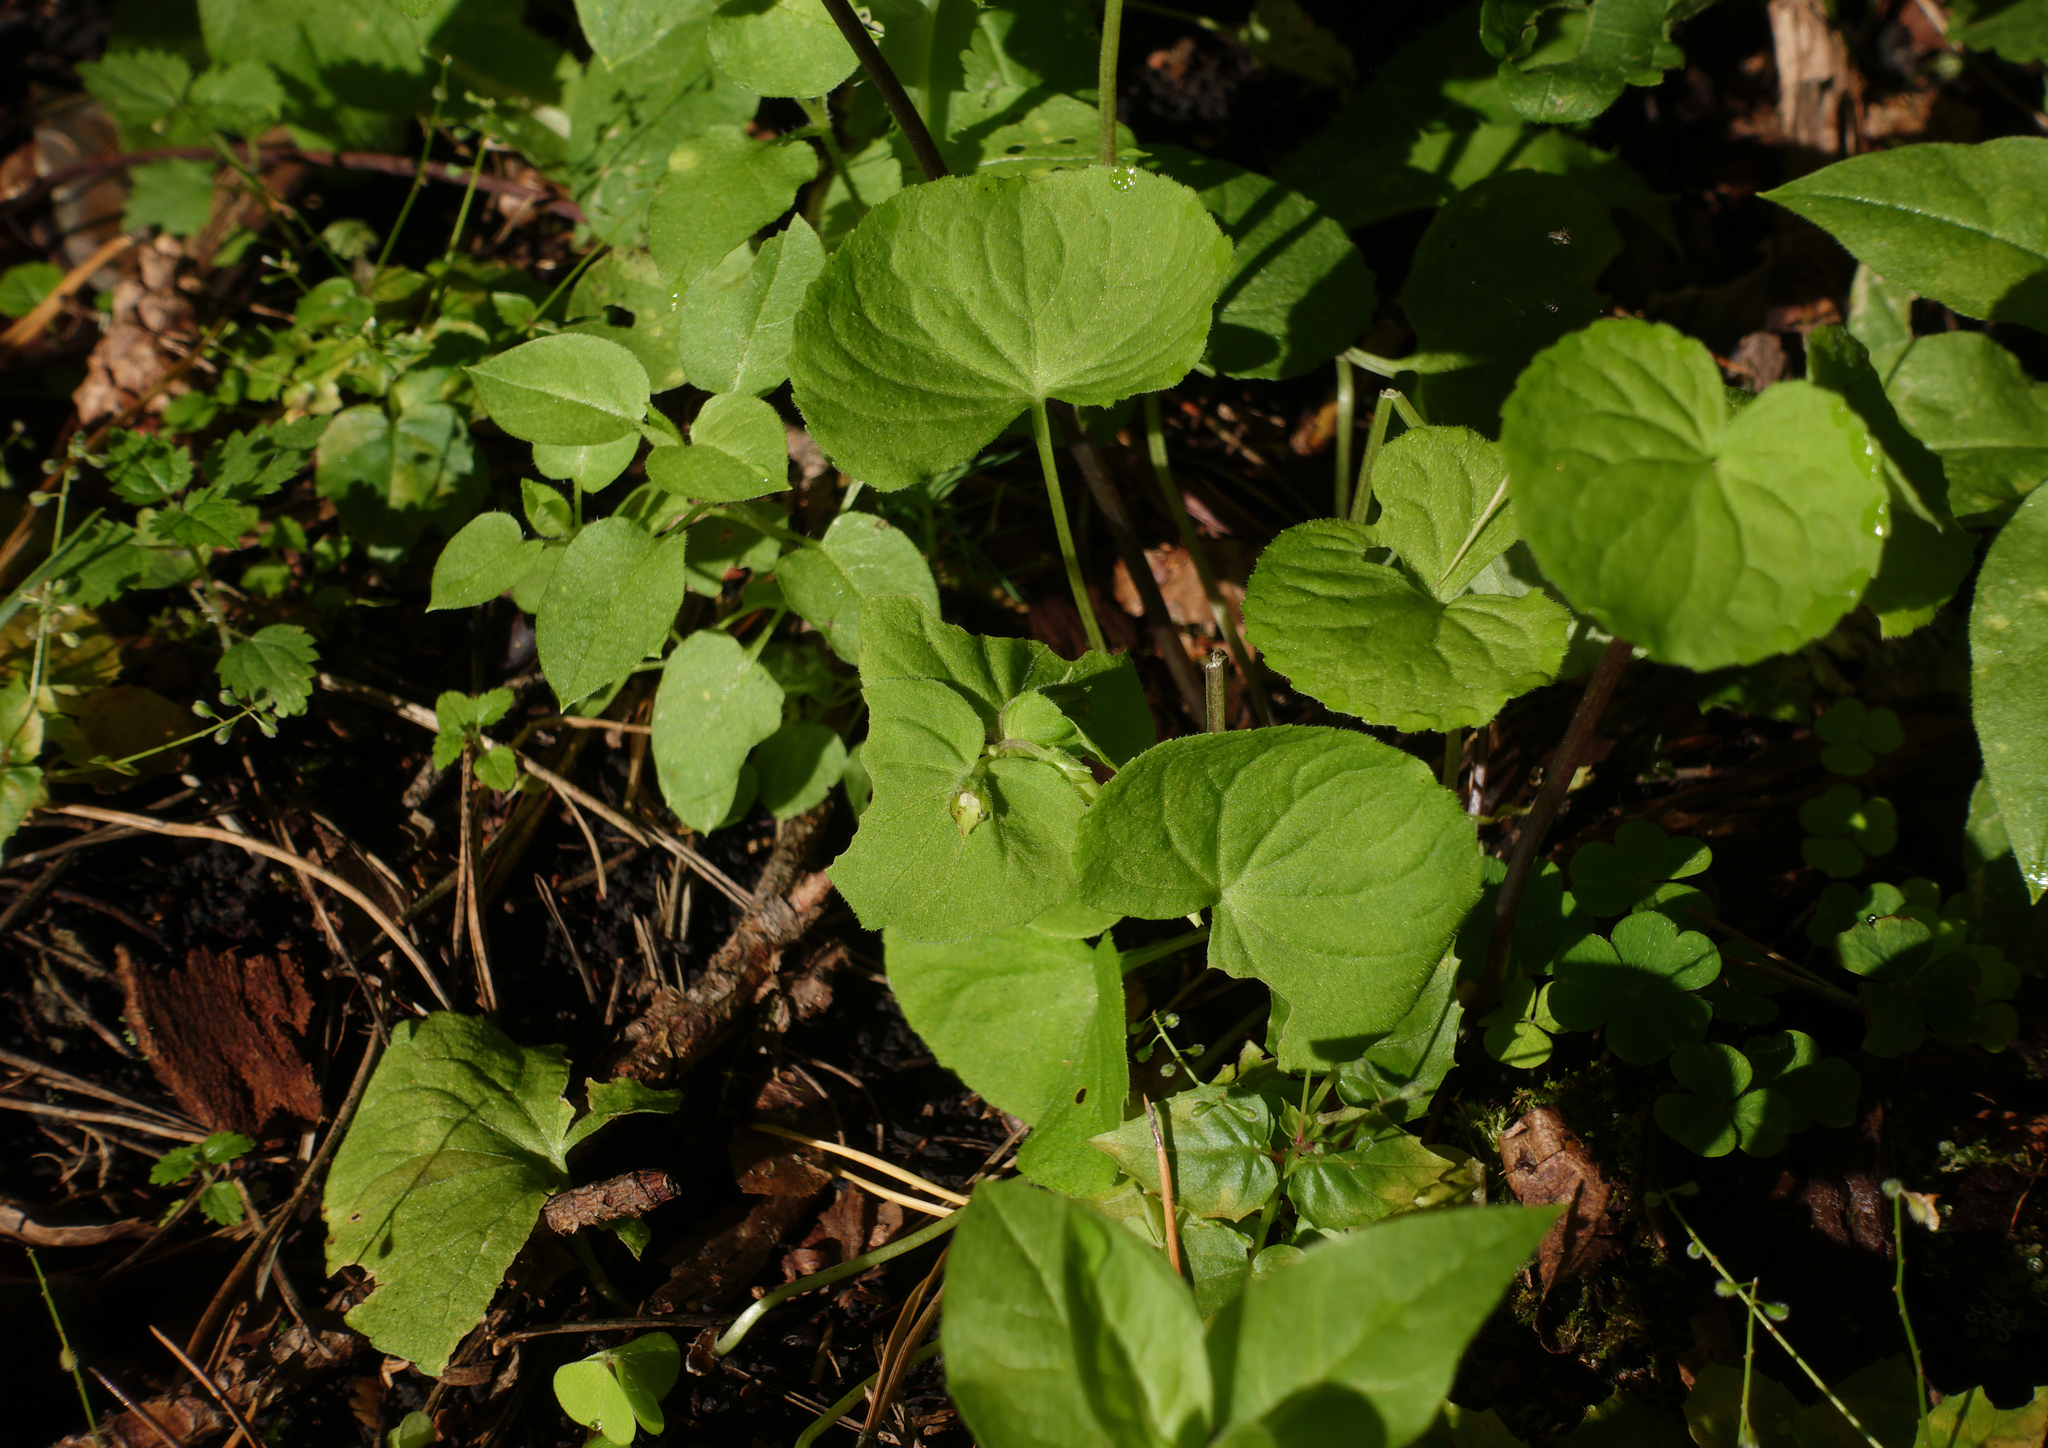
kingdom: Plantae
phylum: Tracheophyta
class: Magnoliopsida
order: Malpighiales
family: Violaceae
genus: Viola
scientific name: Viola mirabilis
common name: Wonder violet
